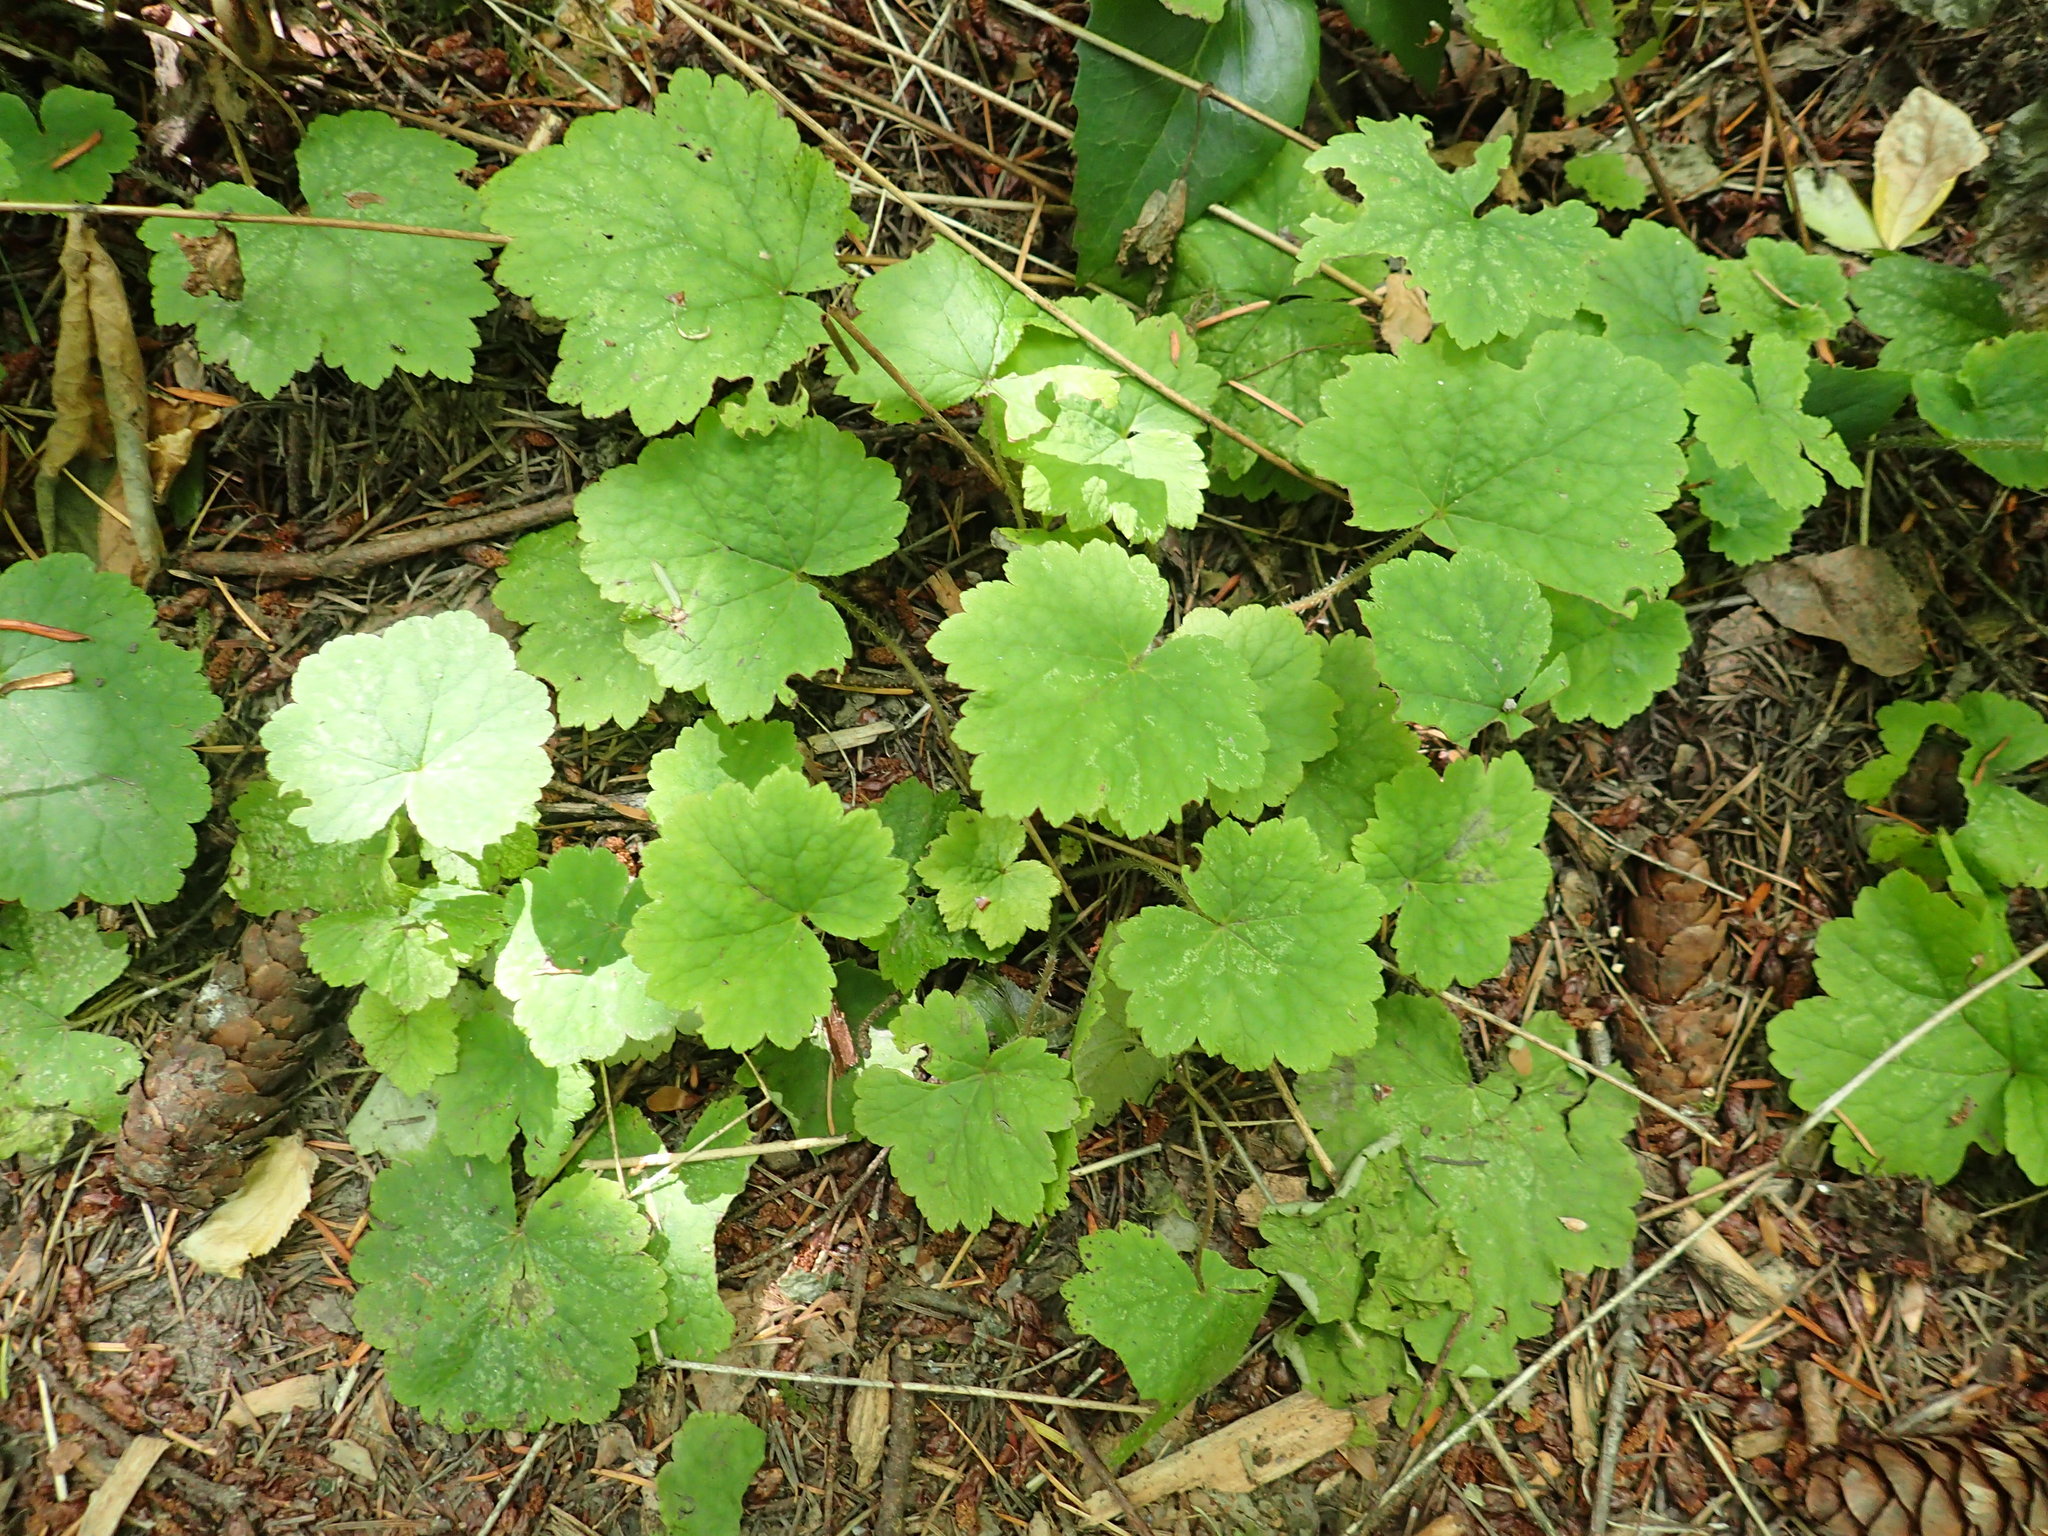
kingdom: Plantae
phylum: Tracheophyta
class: Magnoliopsida
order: Saxifragales
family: Saxifragaceae
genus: Tellima
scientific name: Tellima grandiflora
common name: Fringecups
